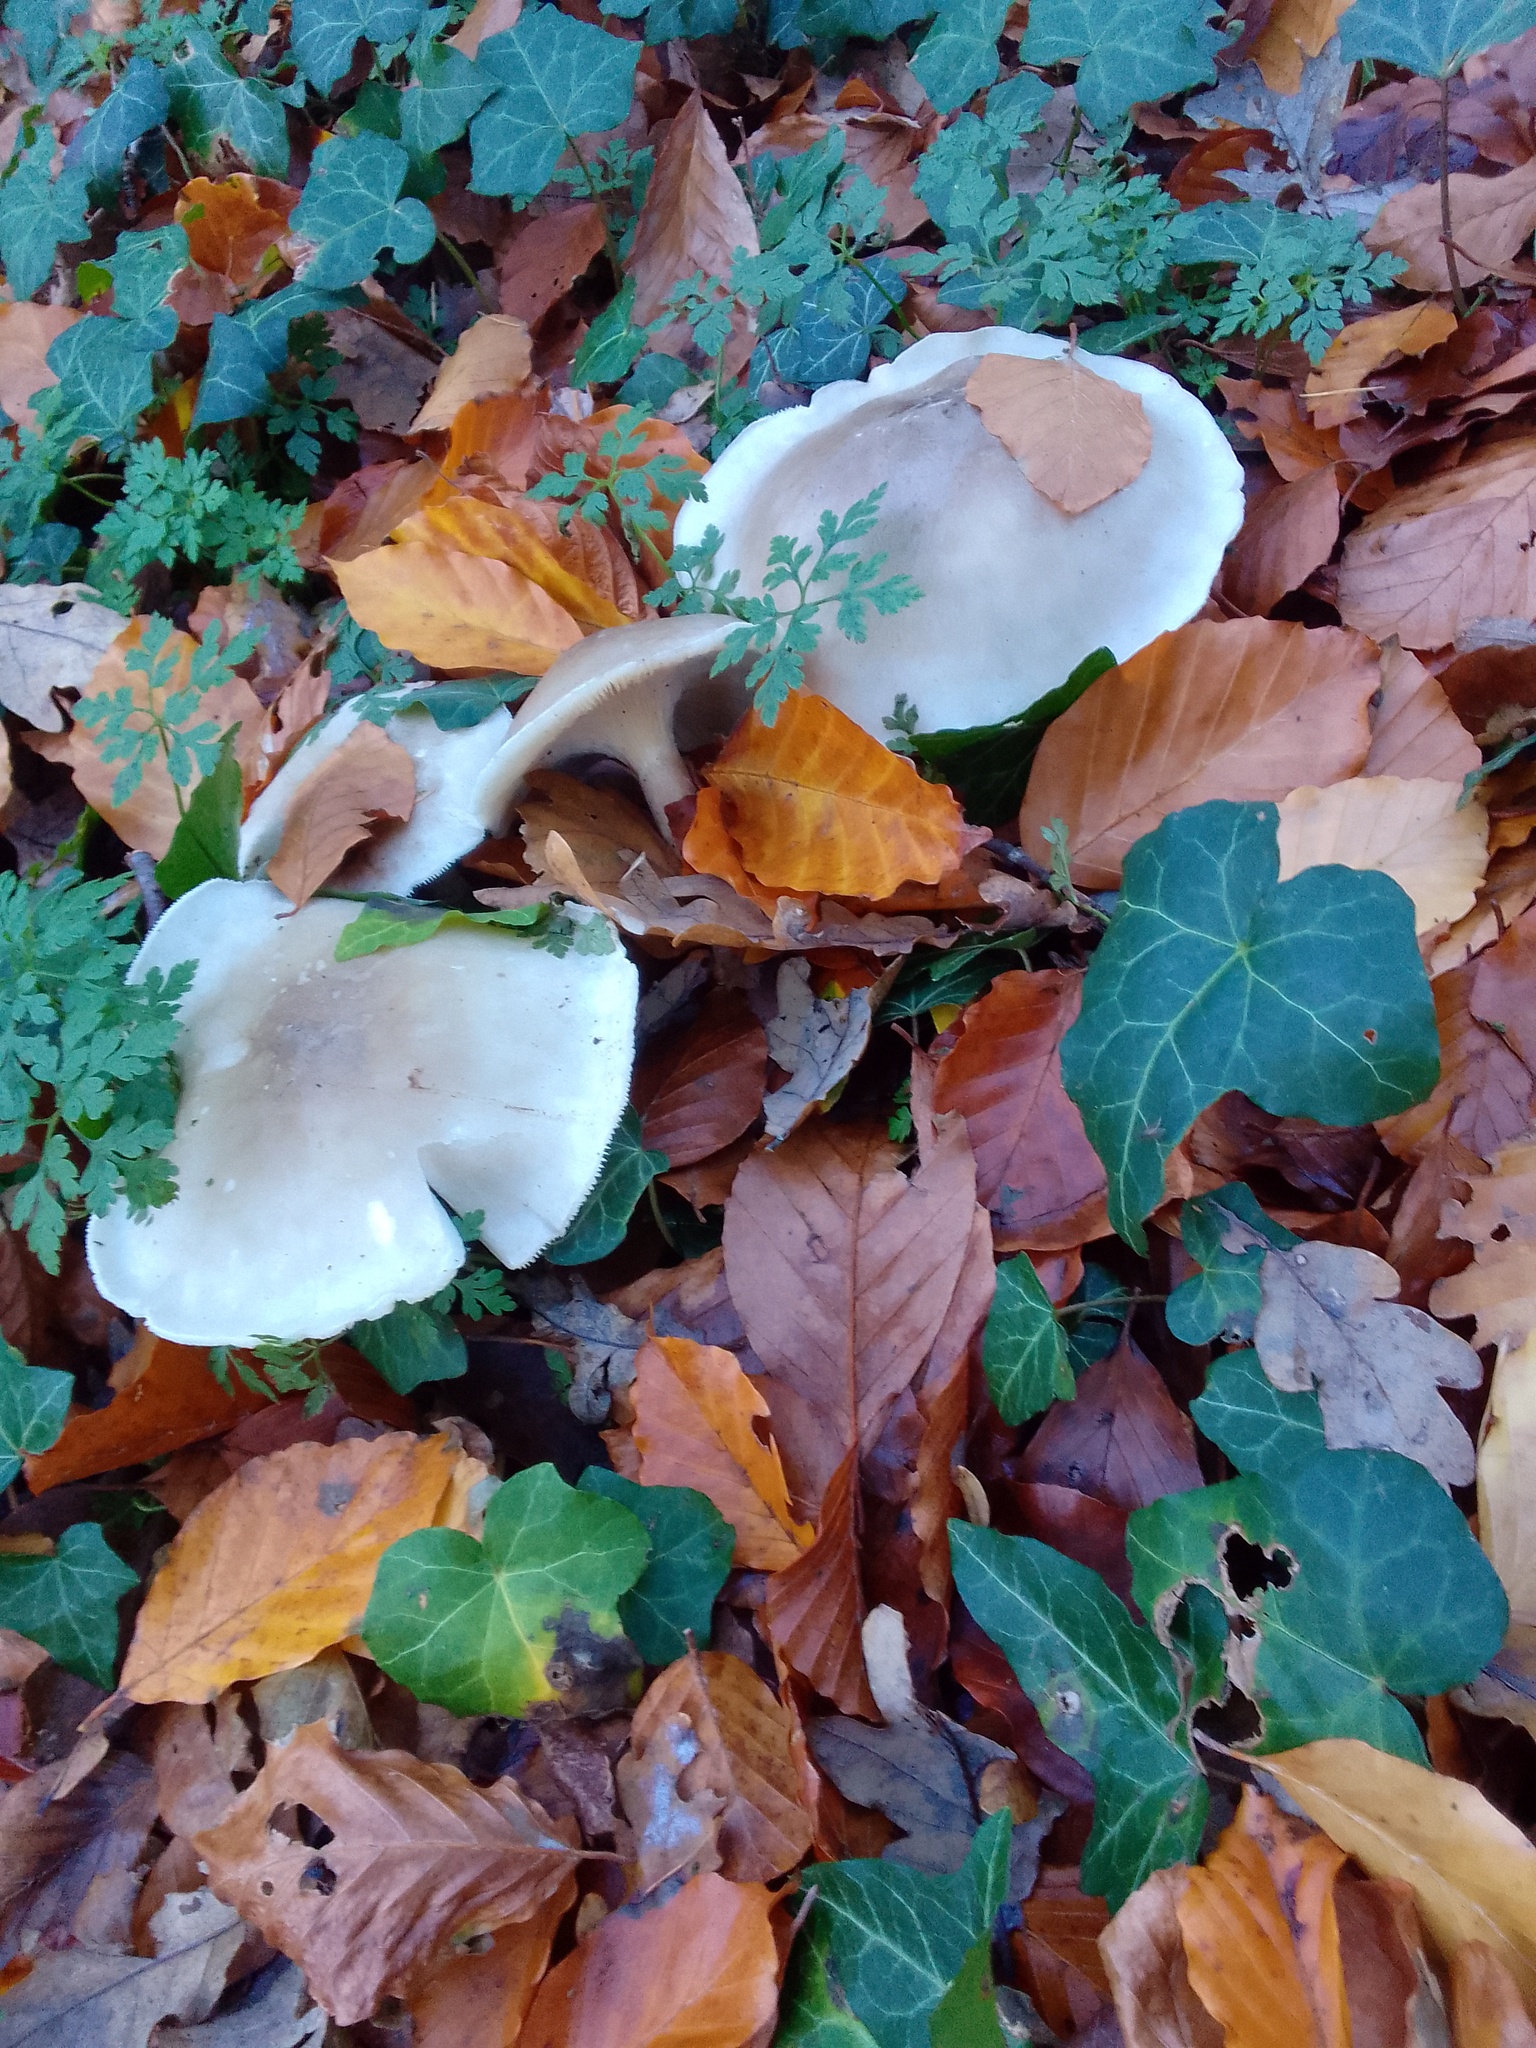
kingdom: Fungi
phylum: Basidiomycota
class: Agaricomycetes
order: Agaricales
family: Tricholomataceae
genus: Clitocybe
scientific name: Clitocybe nebularis
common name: Clouded agaric
